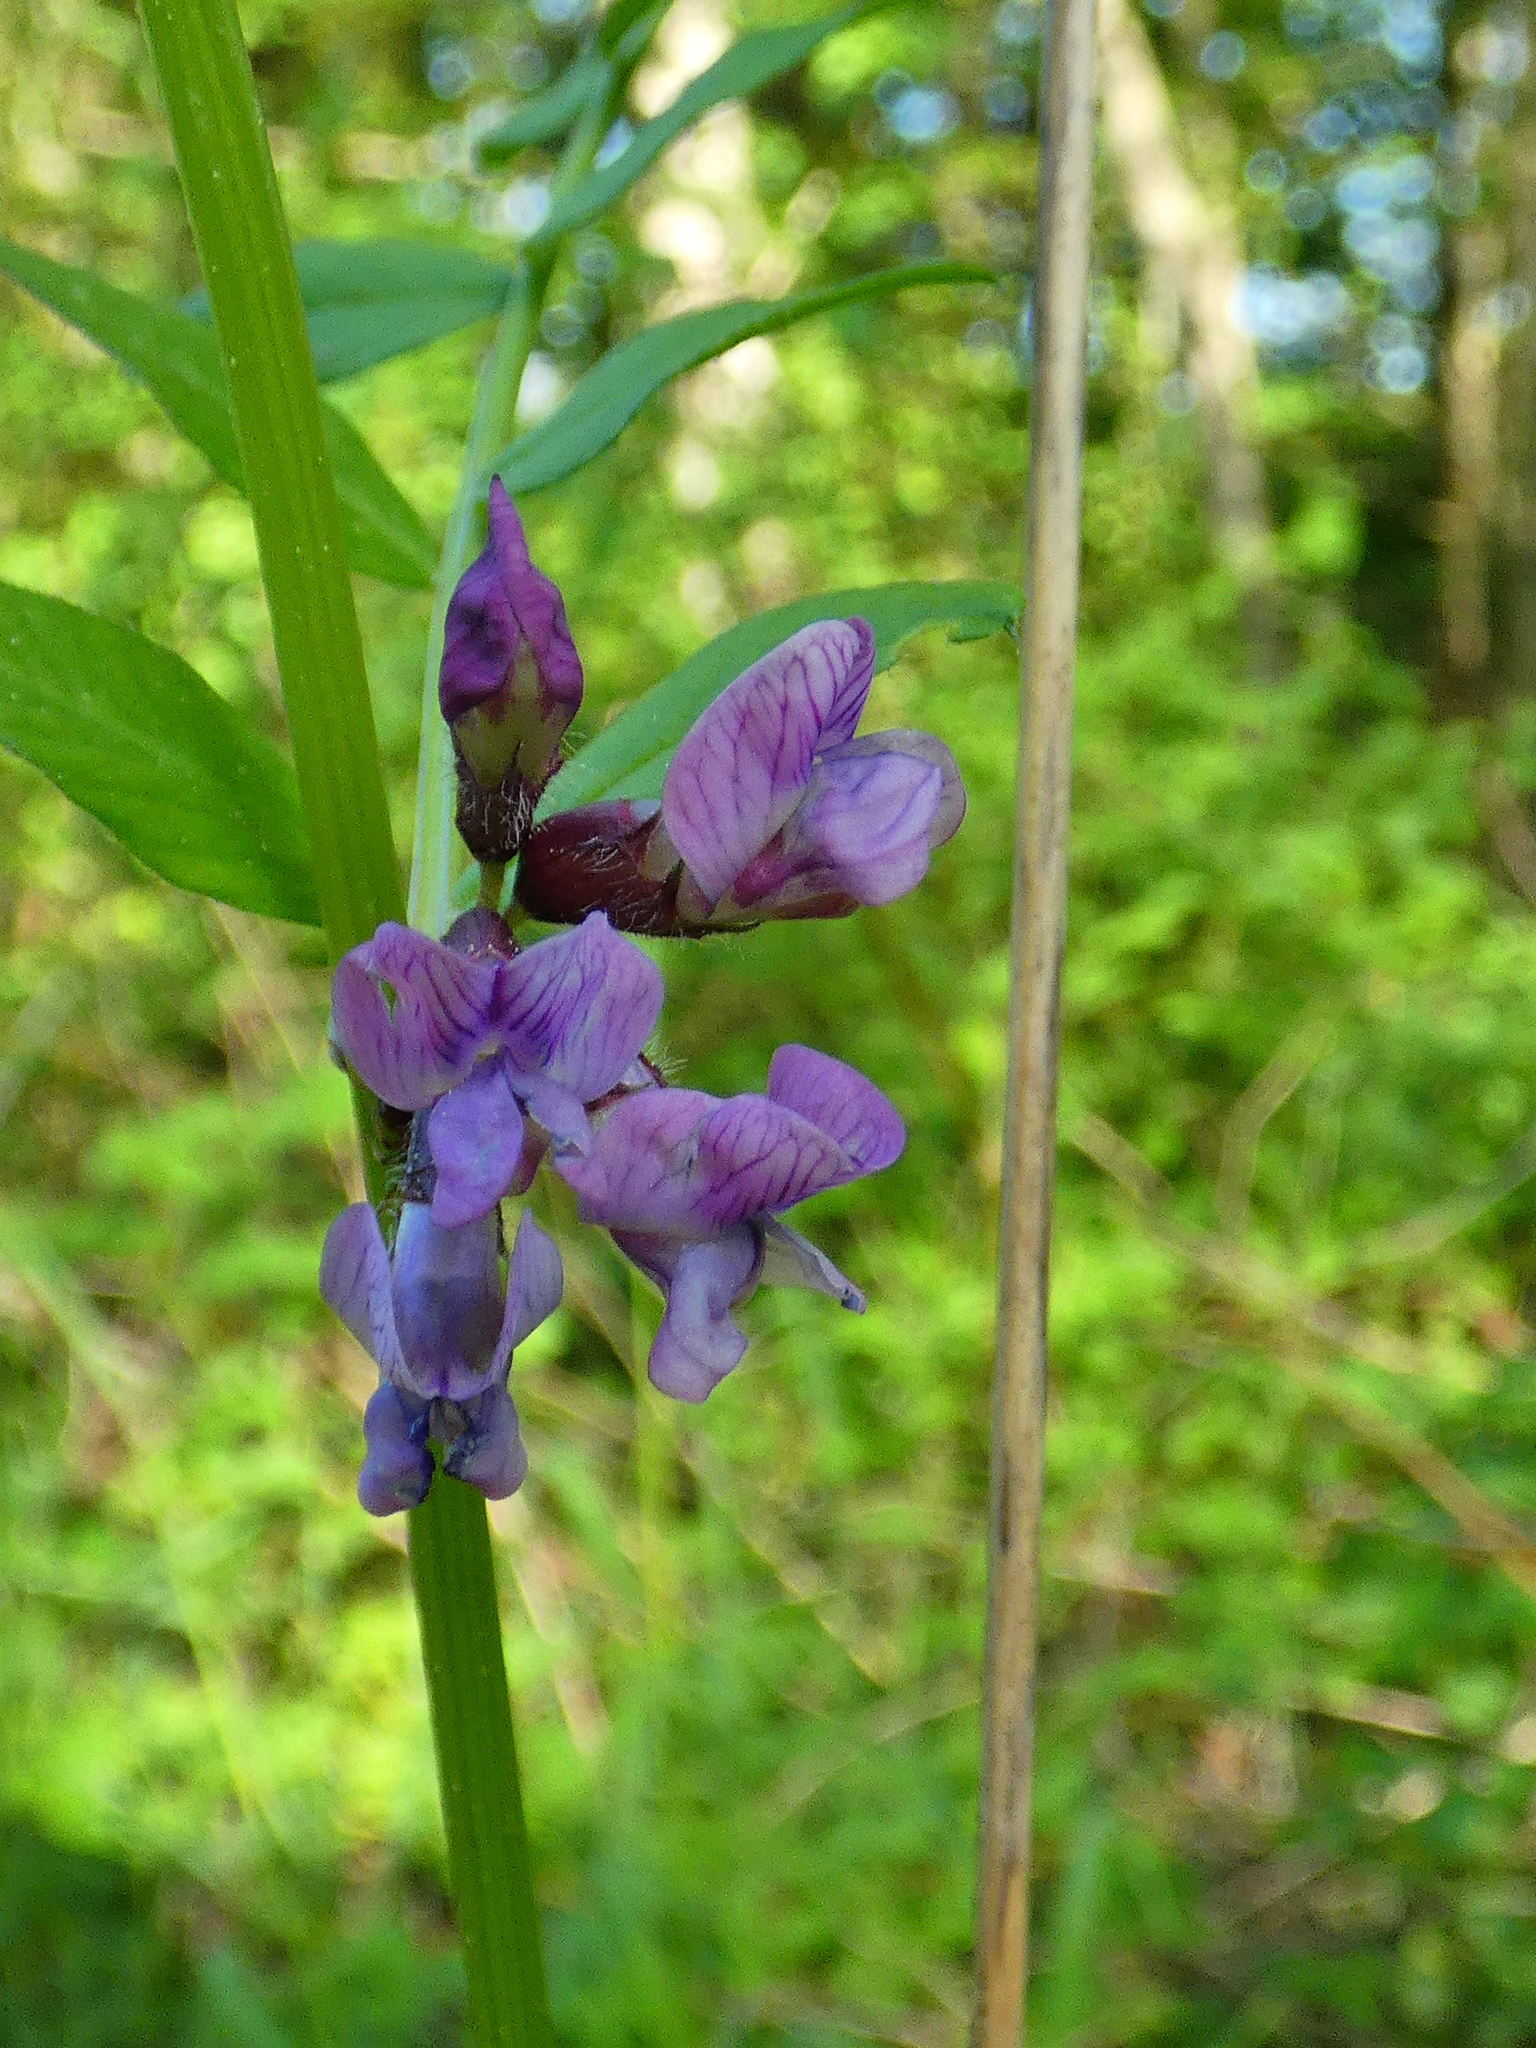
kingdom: Plantae
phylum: Tracheophyta
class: Magnoliopsida
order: Fabales
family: Fabaceae
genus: Vicia
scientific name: Vicia sepium
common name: Bush vetch
